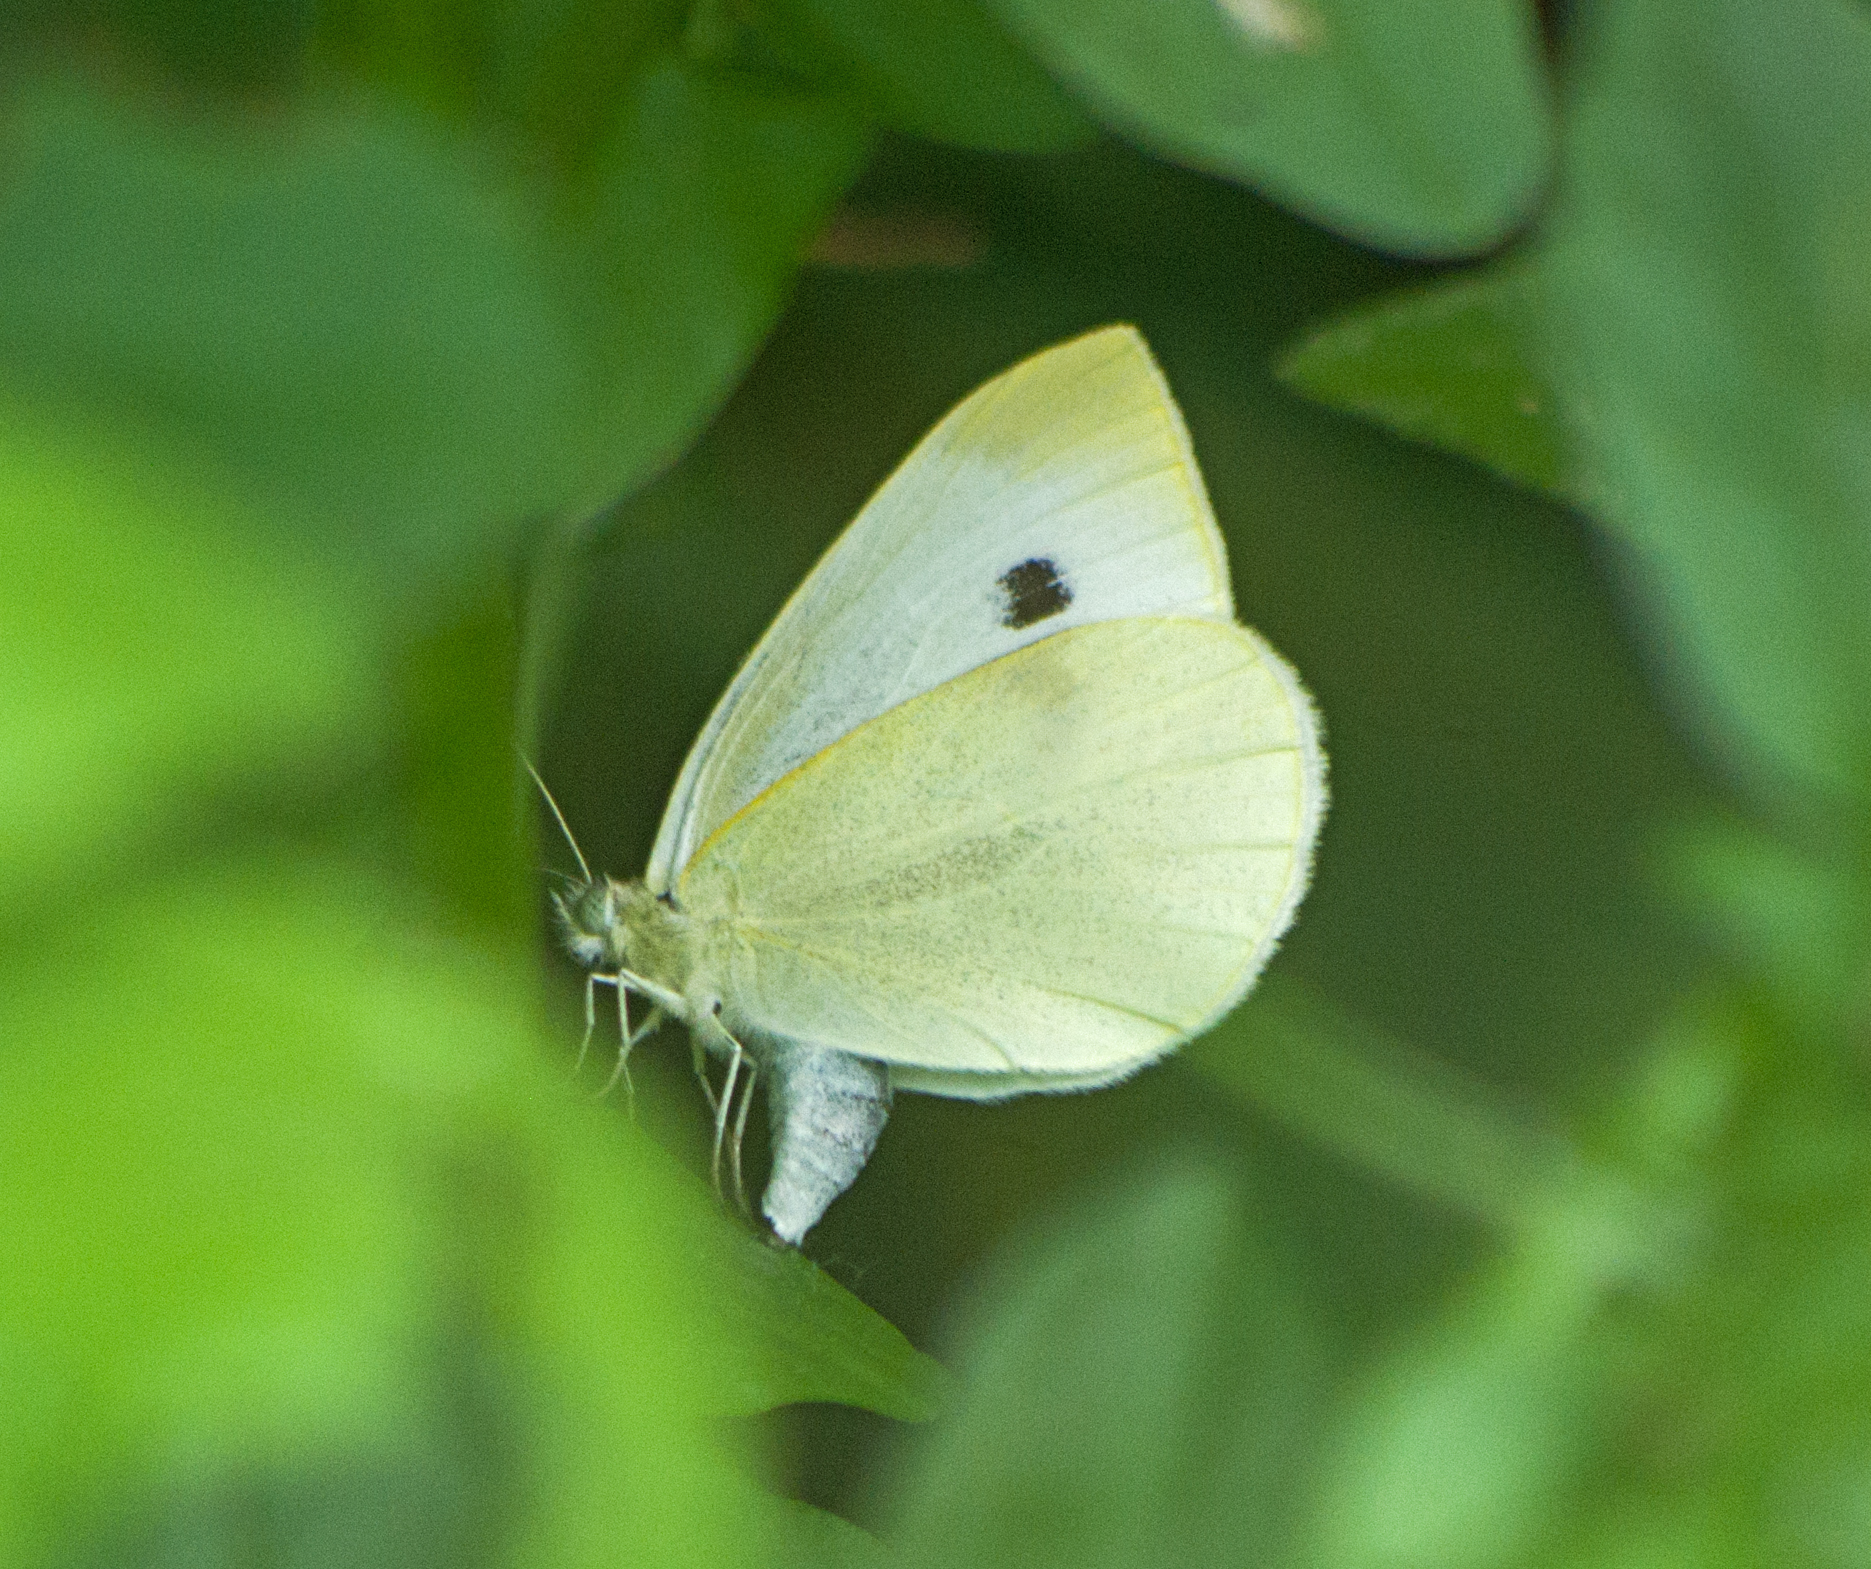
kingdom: Animalia
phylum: Arthropoda
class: Insecta
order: Lepidoptera
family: Pieridae
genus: Pieris
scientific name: Pieris rapae
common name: Small white
